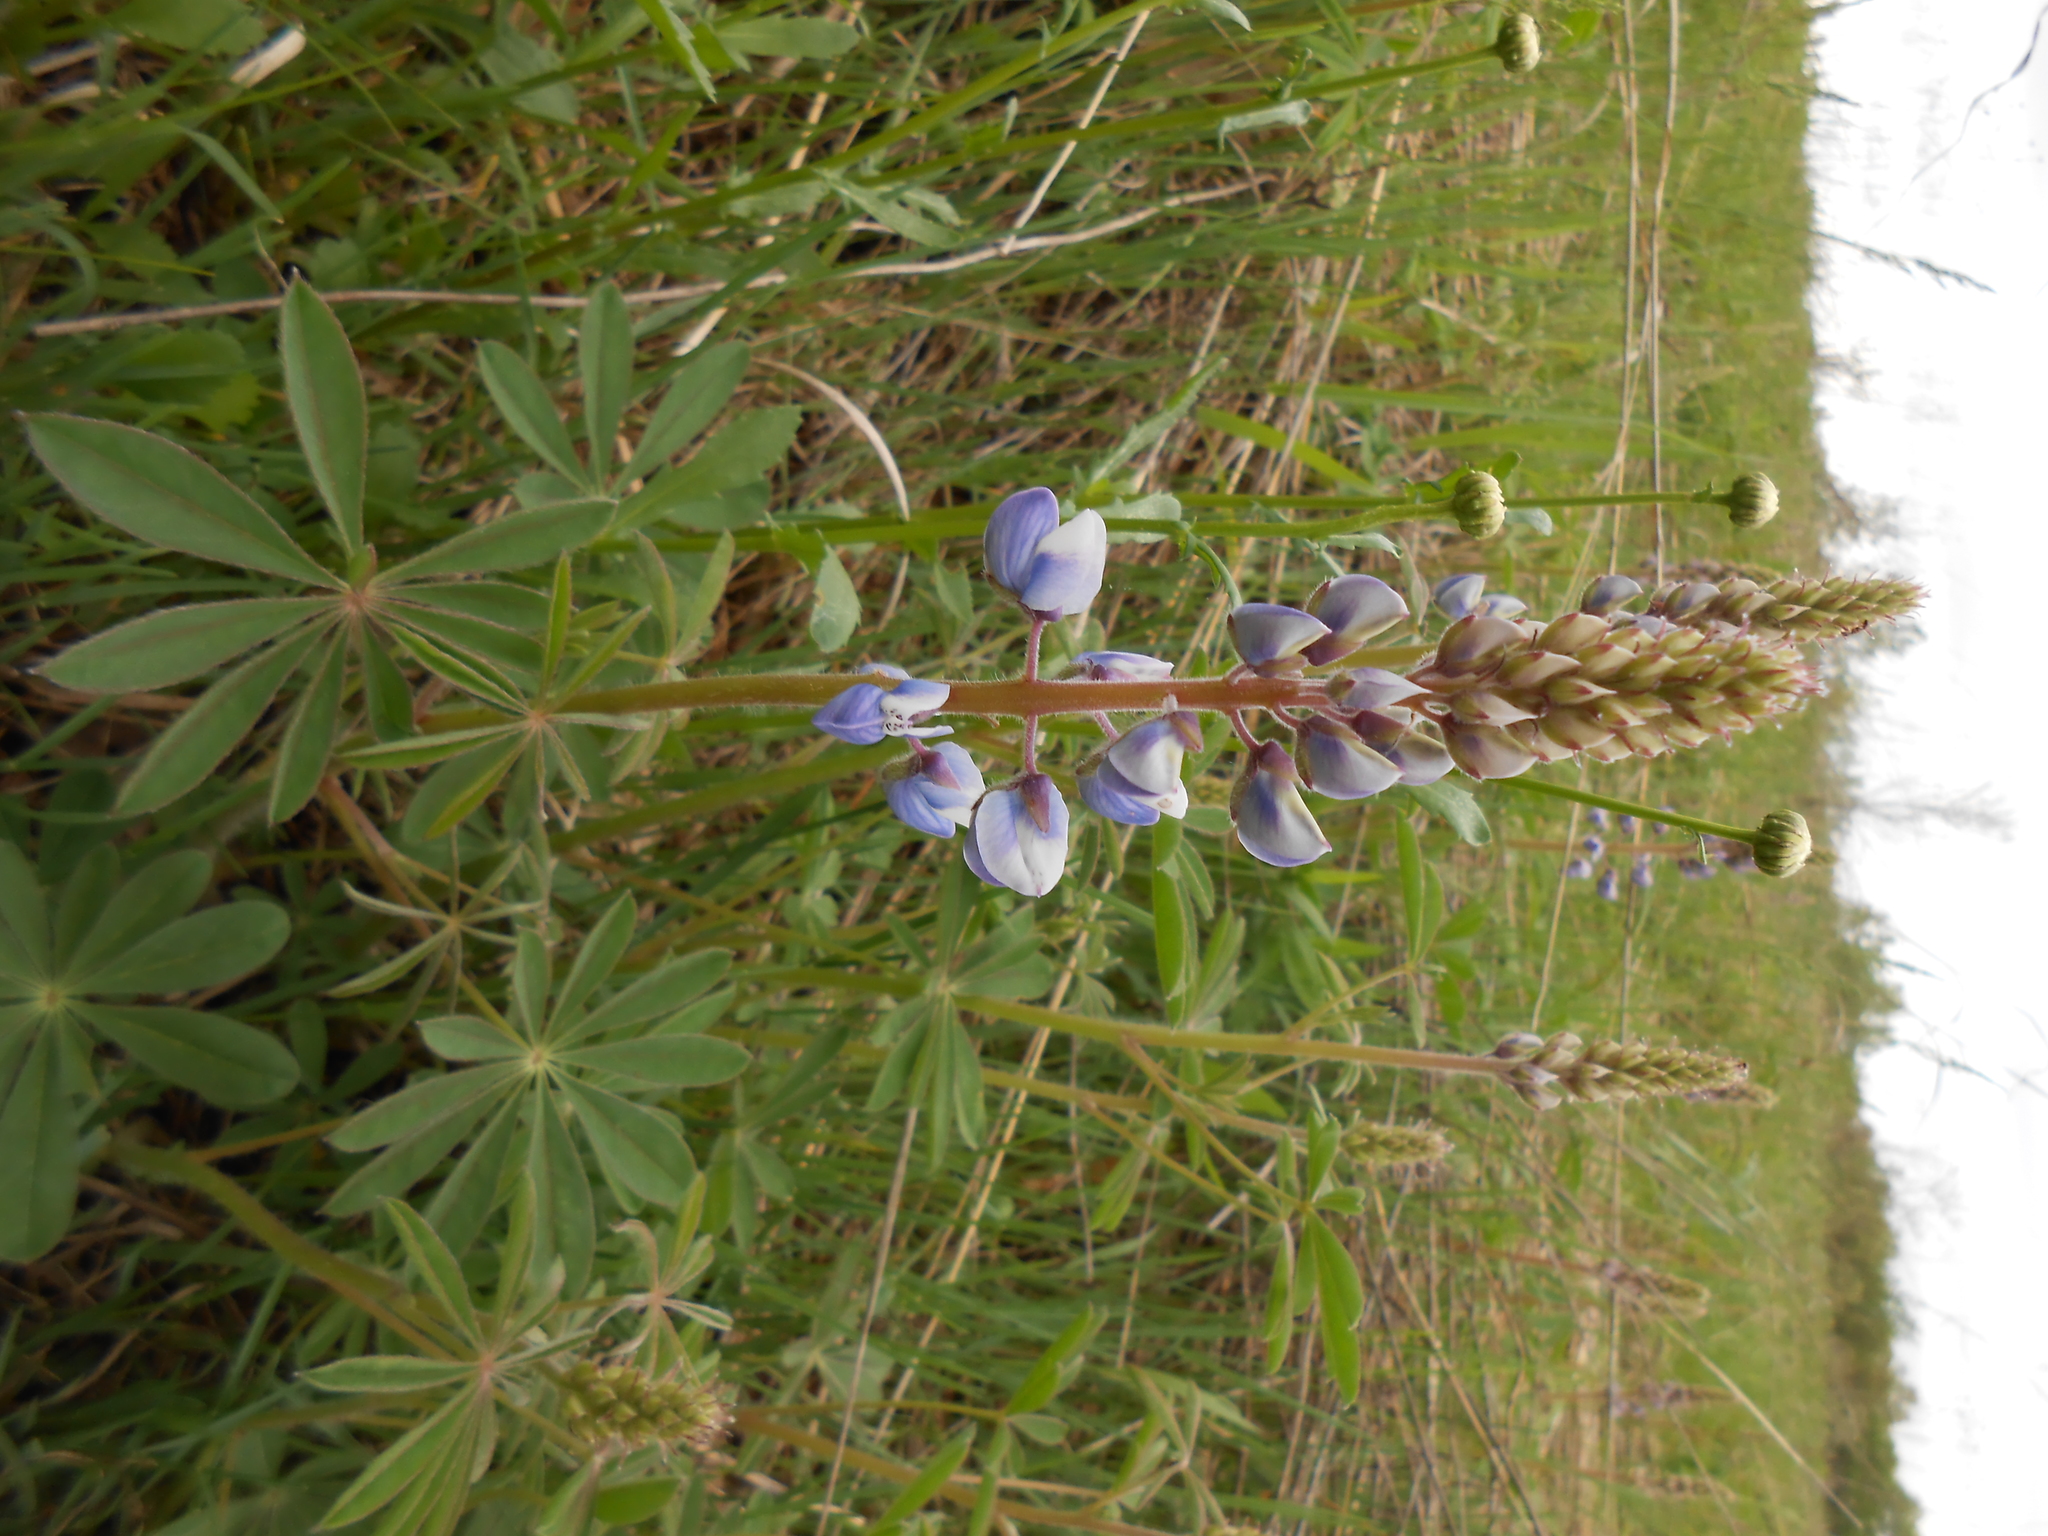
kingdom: Plantae
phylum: Tracheophyta
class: Magnoliopsida
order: Fabales
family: Fabaceae
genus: Lupinus
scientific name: Lupinus perennis
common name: Sundial lupine
